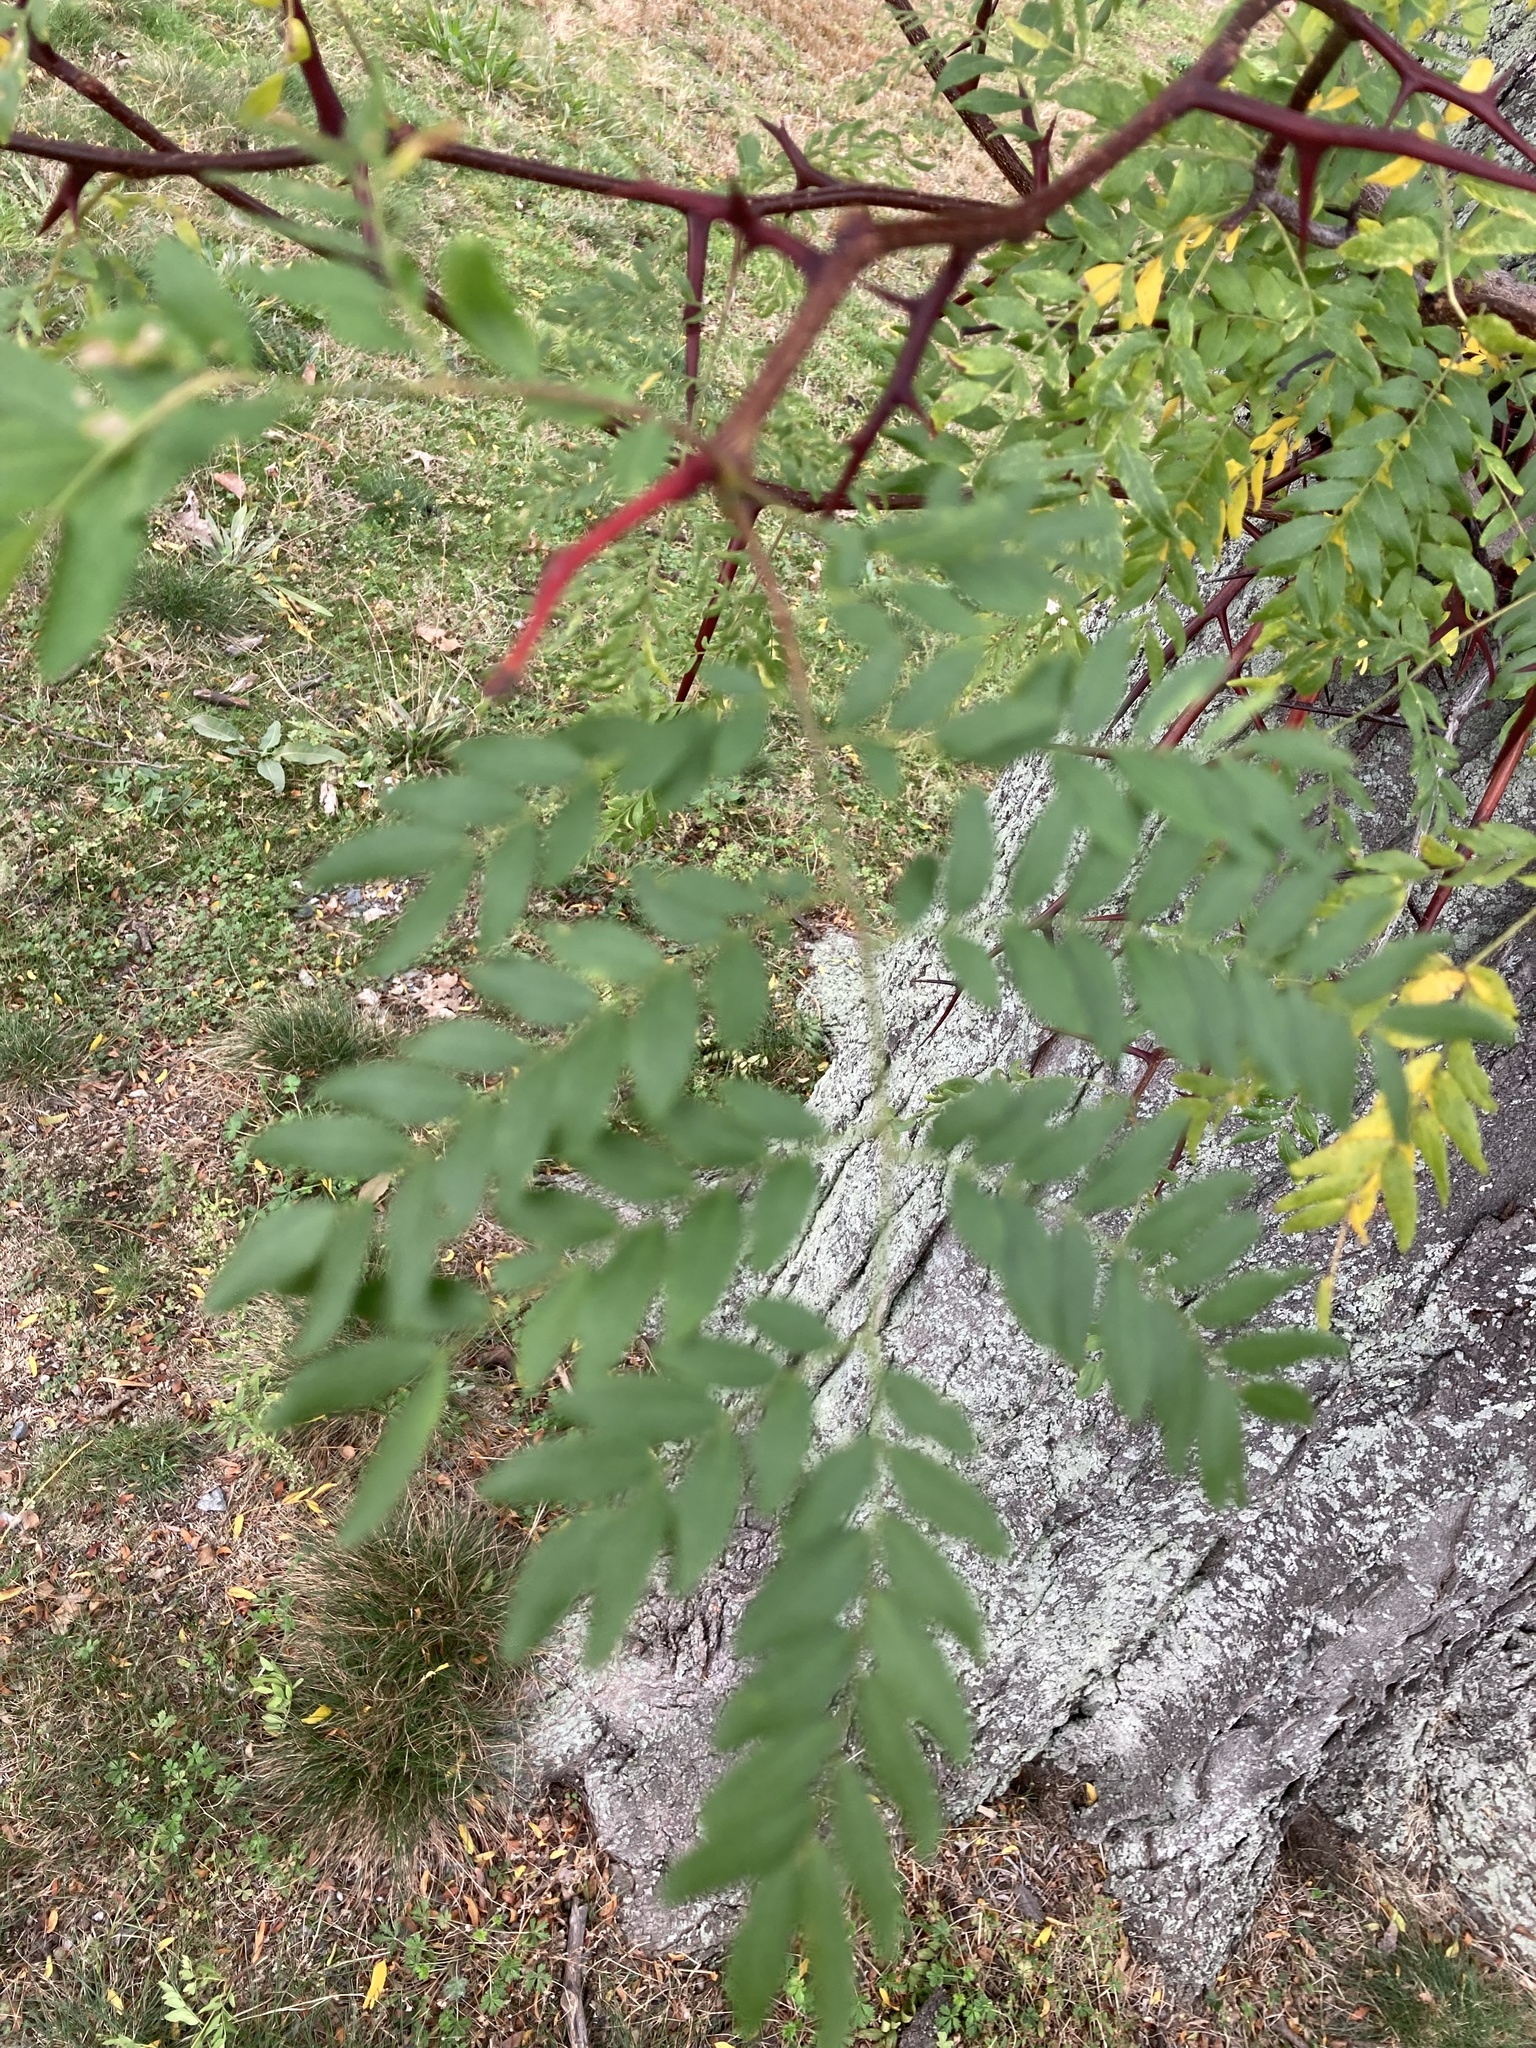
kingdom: Plantae
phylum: Tracheophyta
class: Magnoliopsida
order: Fabales
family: Fabaceae
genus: Gleditsia
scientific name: Gleditsia triacanthos
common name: Common honeylocust
